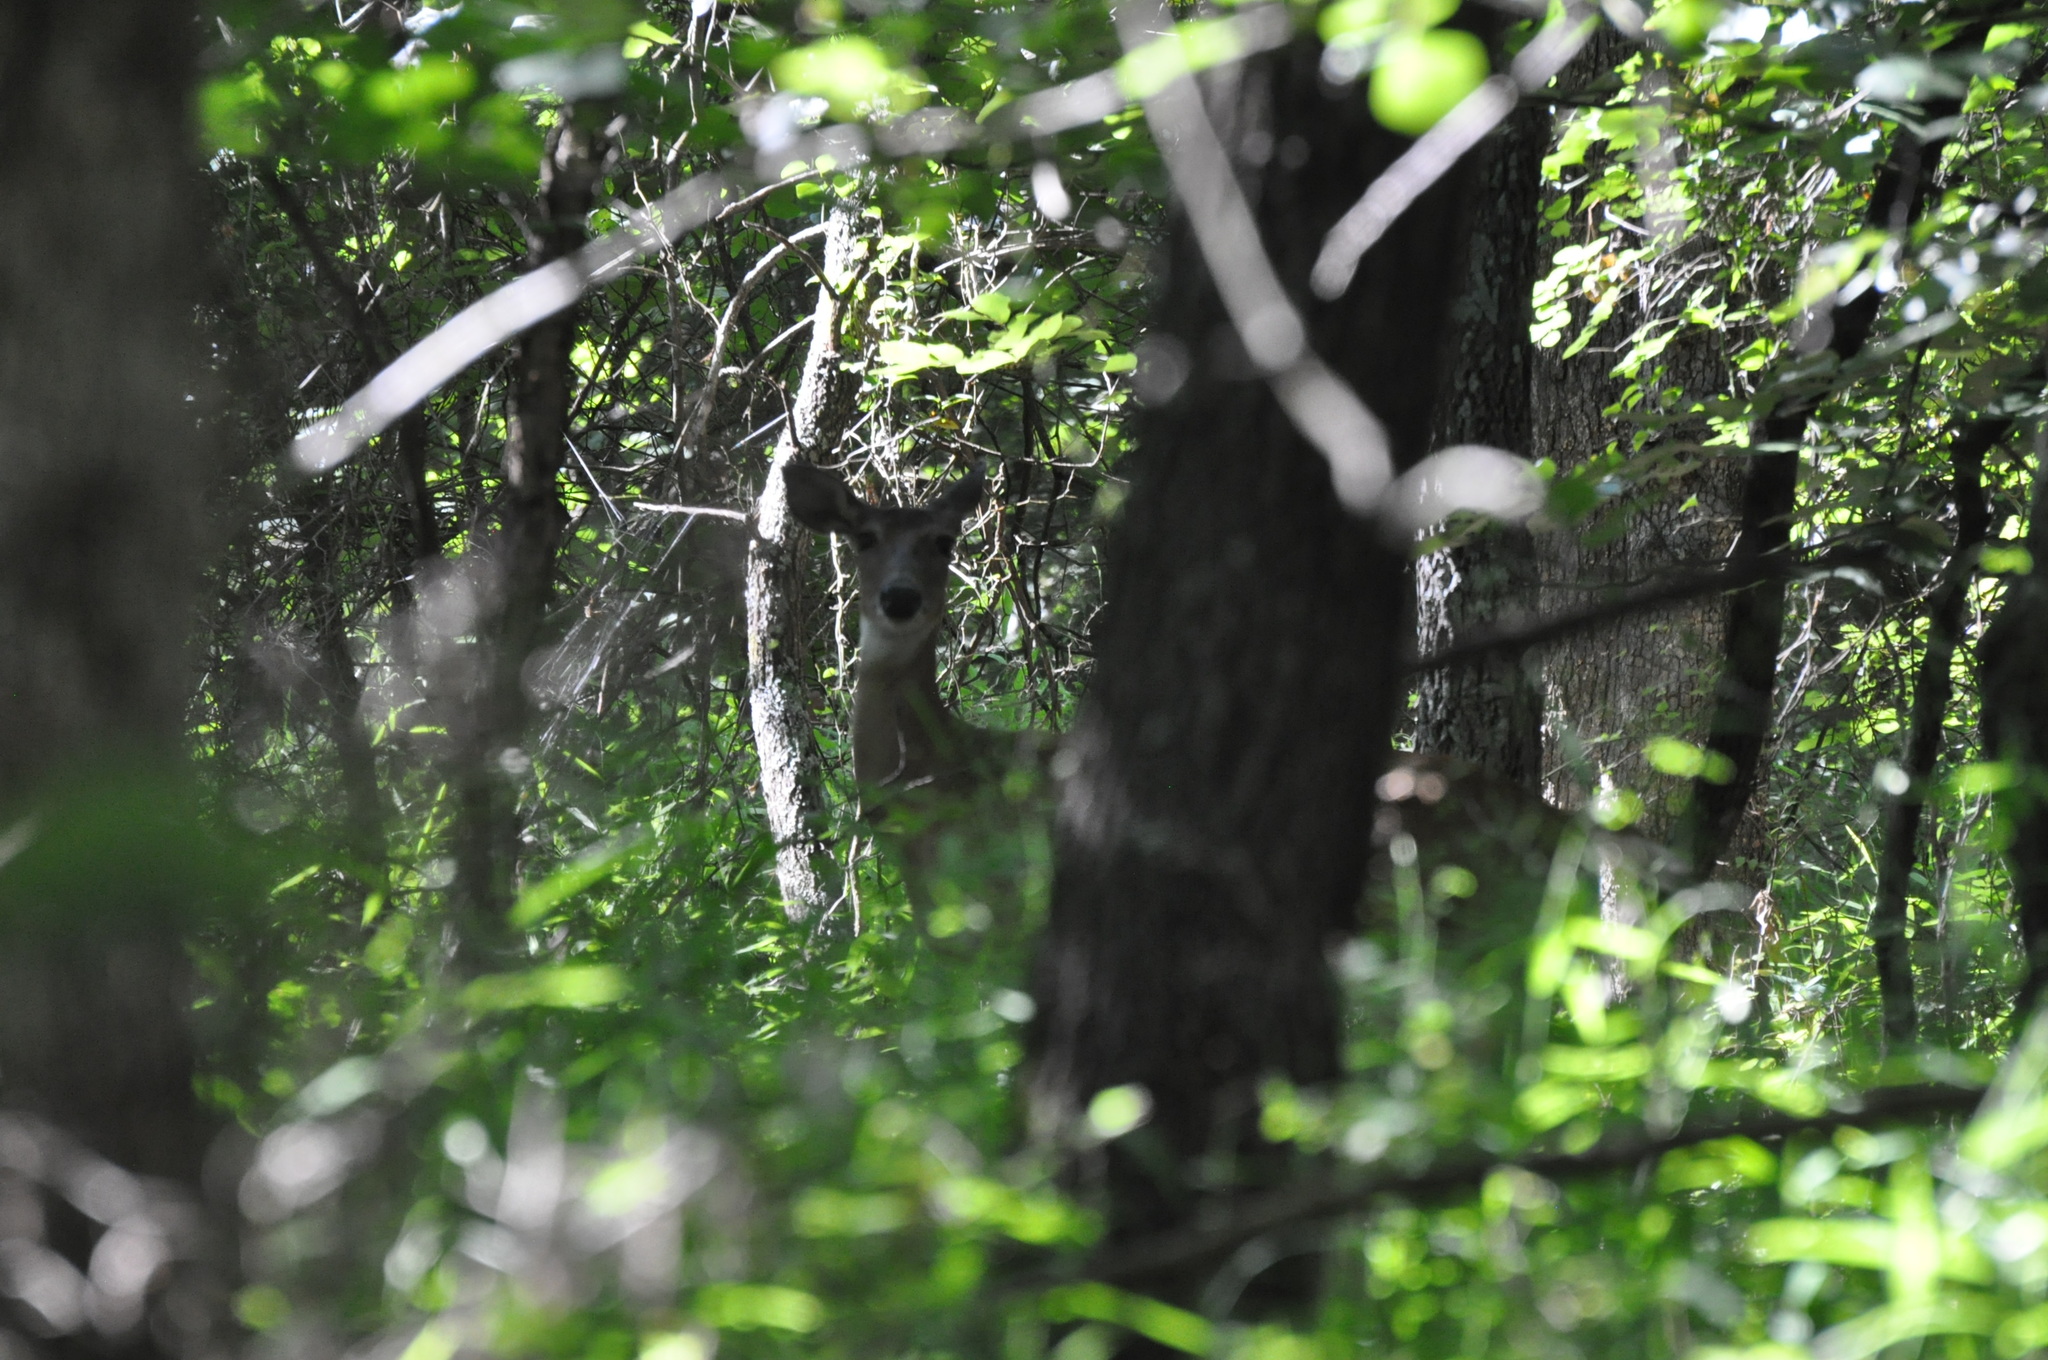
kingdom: Animalia
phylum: Chordata
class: Mammalia
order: Artiodactyla
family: Cervidae
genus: Odocoileus
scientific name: Odocoileus virginianus
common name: White-tailed deer
